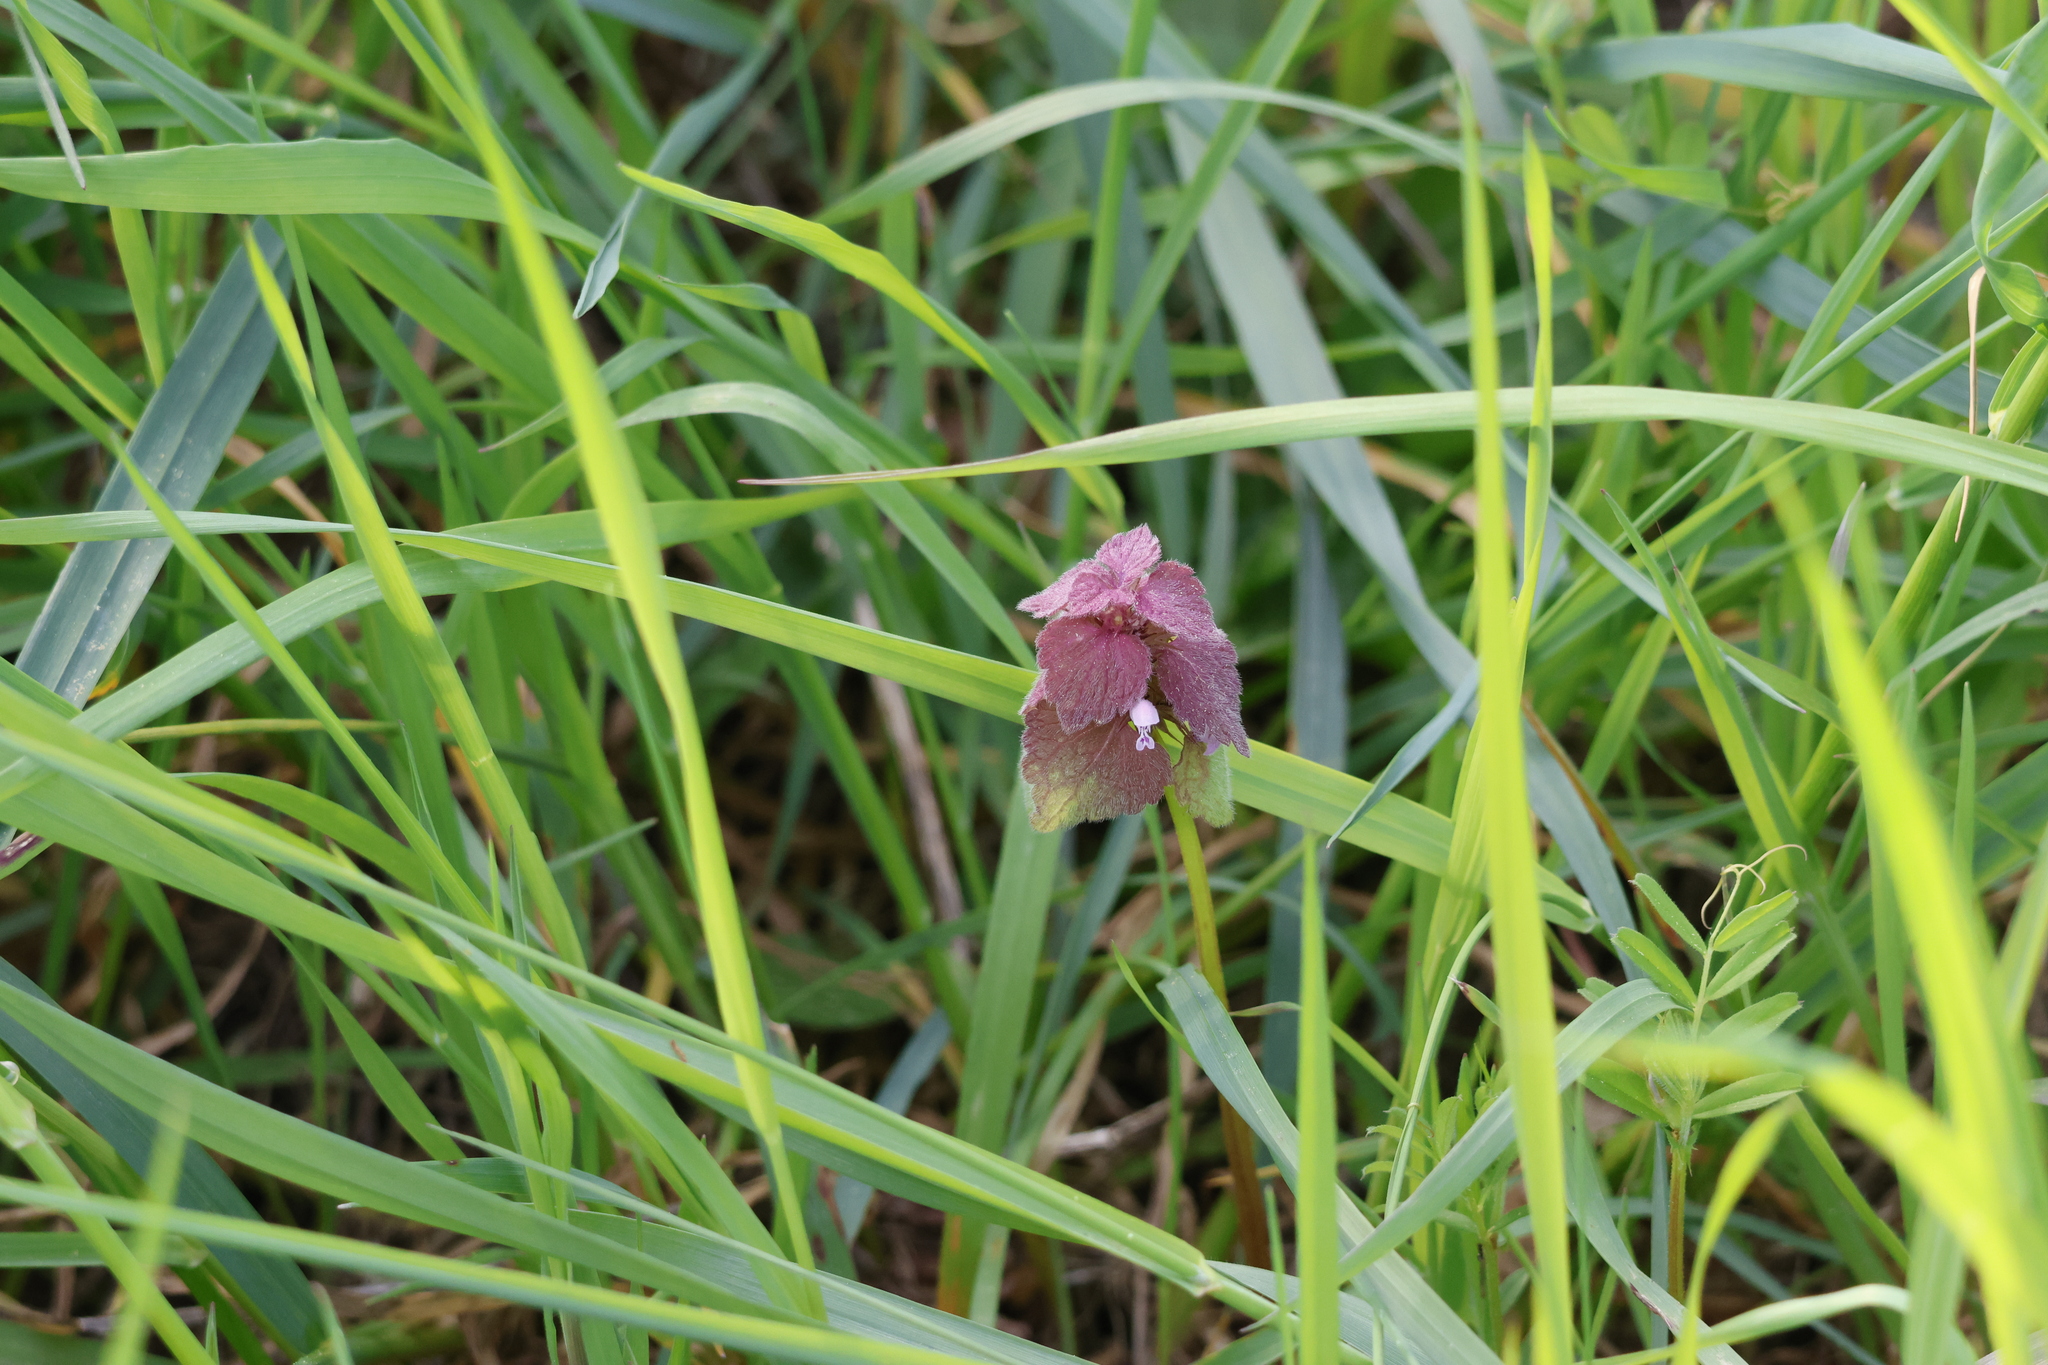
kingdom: Plantae
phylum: Tracheophyta
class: Magnoliopsida
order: Lamiales
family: Lamiaceae
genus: Lamium
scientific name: Lamium purpureum
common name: Red dead-nettle
